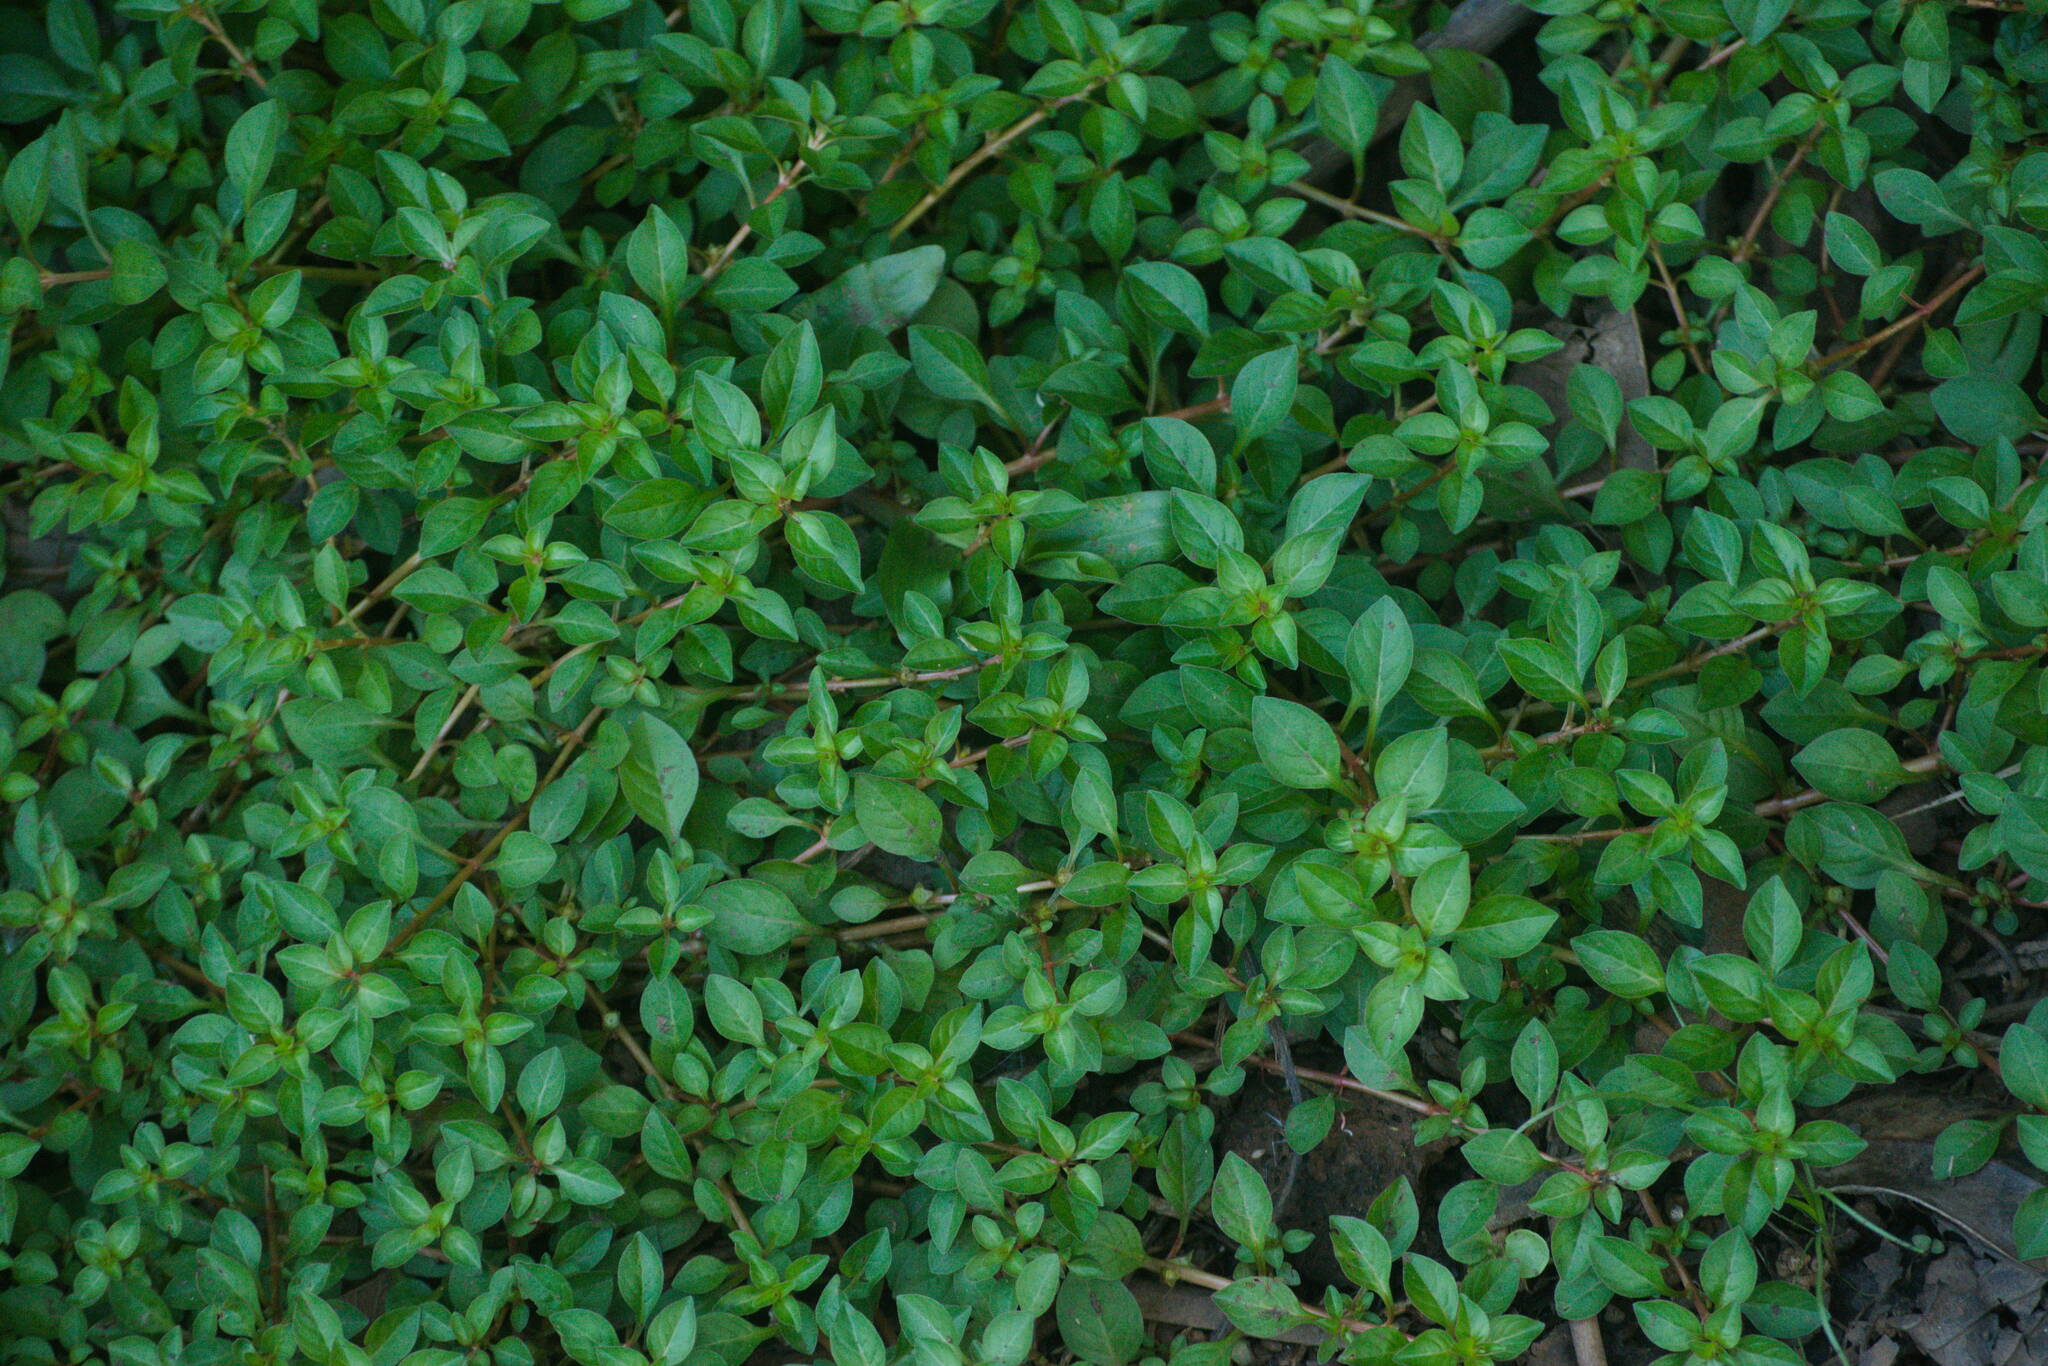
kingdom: Plantae
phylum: Tracheophyta
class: Magnoliopsida
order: Myrtales
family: Onagraceae
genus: Ludwigia
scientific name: Ludwigia palustris
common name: Hampshire-purslane
